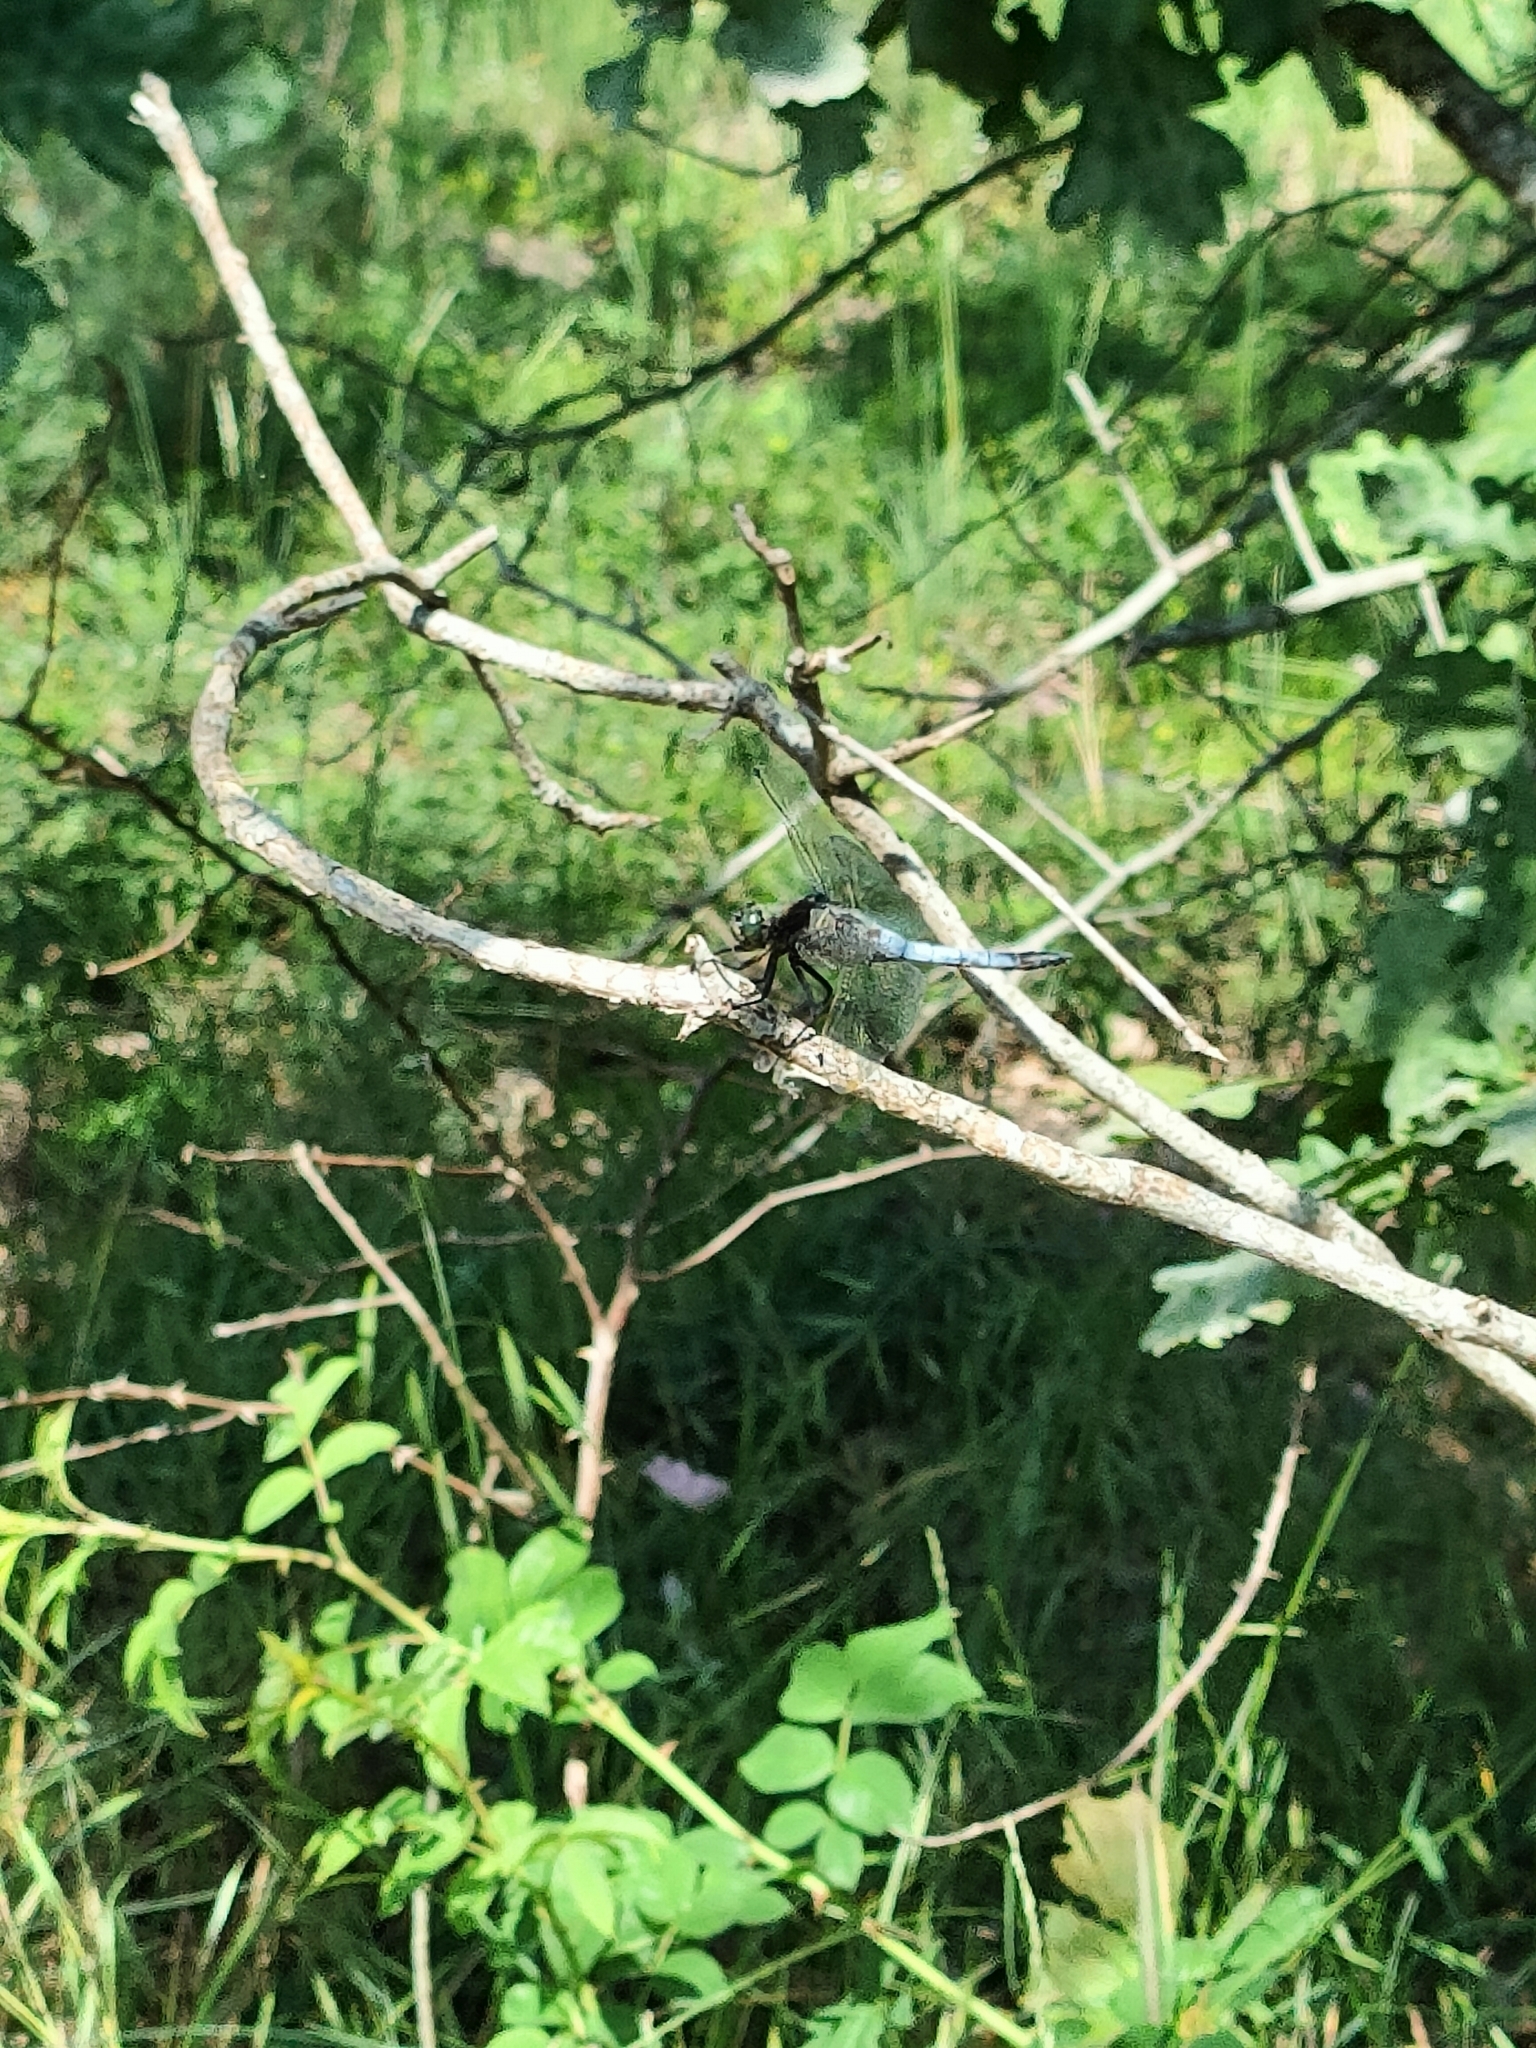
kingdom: Animalia
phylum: Arthropoda
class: Insecta
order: Odonata
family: Libellulidae
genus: Orthetrum
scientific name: Orthetrum cancellatum
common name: Black-tailed skimmer
